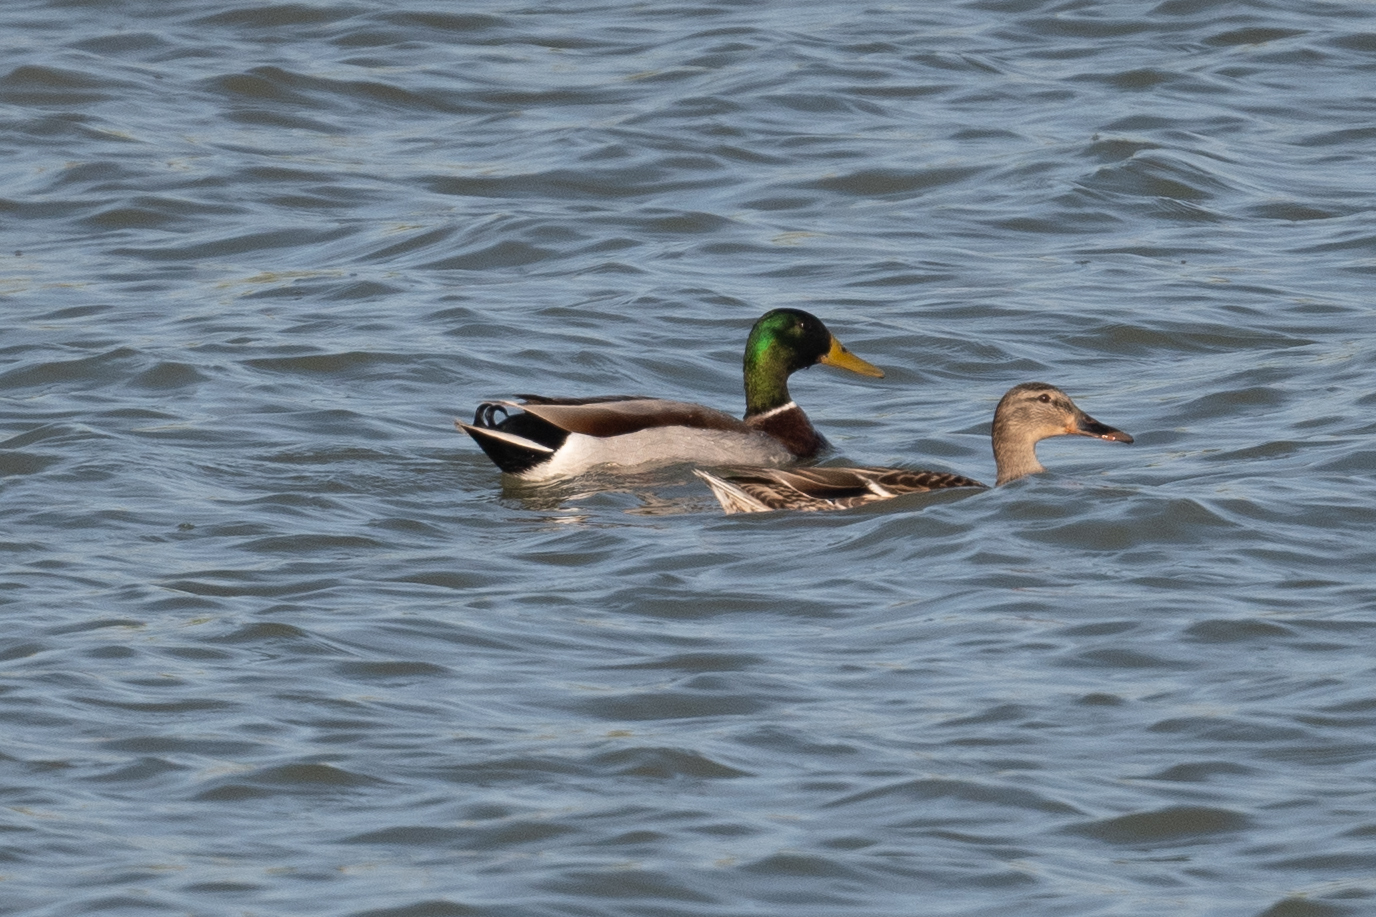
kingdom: Animalia
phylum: Chordata
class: Aves
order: Anseriformes
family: Anatidae
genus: Anas
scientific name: Anas platyrhynchos
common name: Mallard
